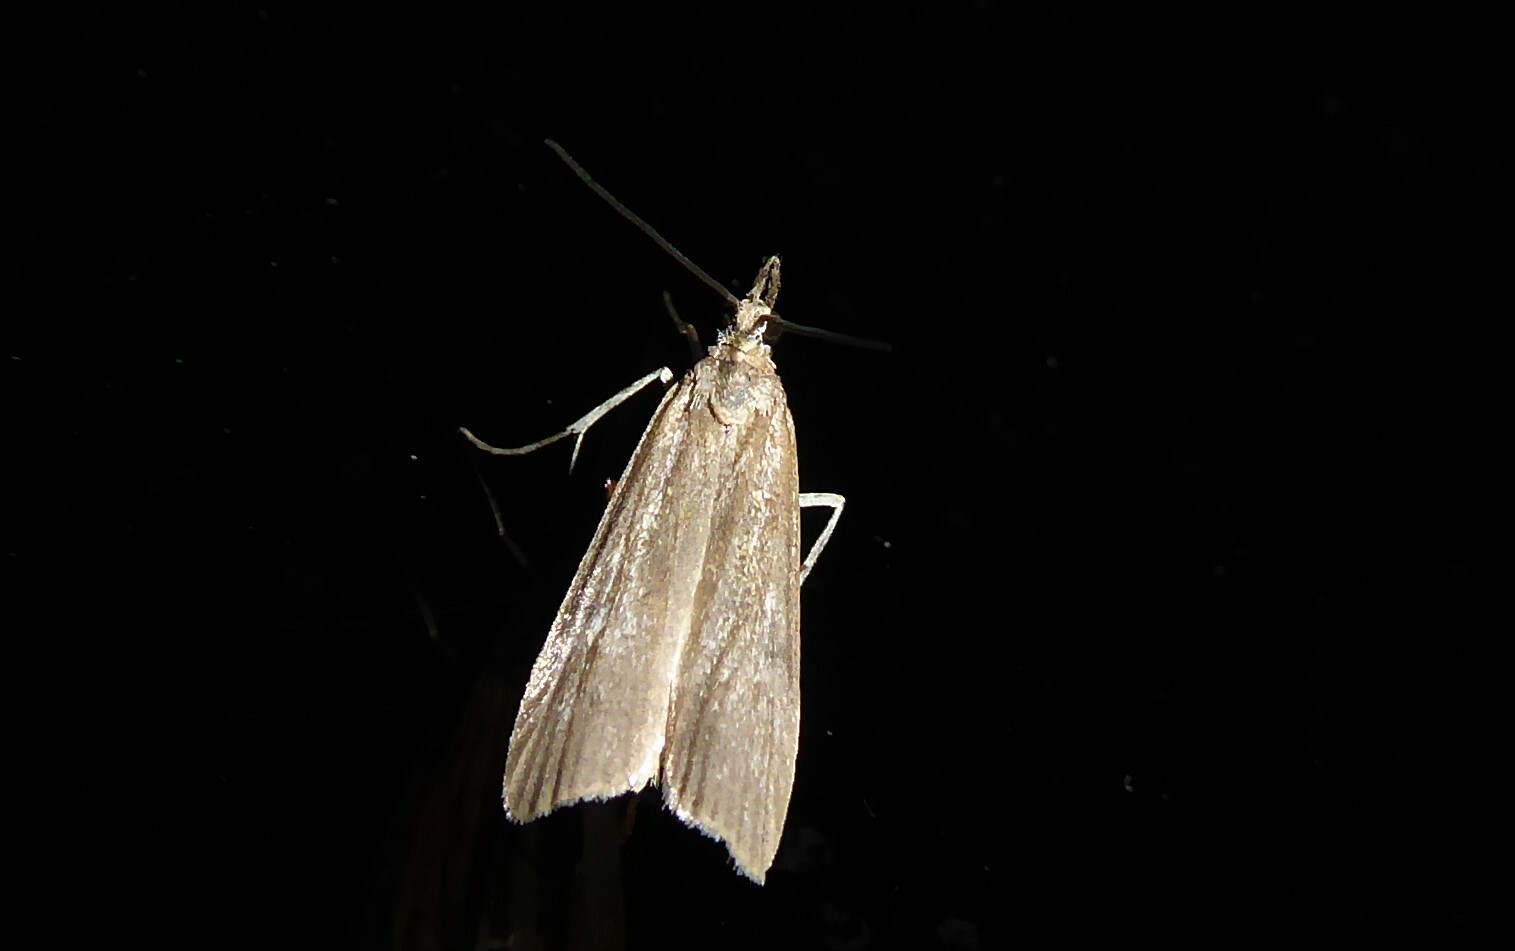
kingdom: Animalia
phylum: Arthropoda
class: Insecta
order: Lepidoptera
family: Crambidae
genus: Eudonia
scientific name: Eudonia leptalea
